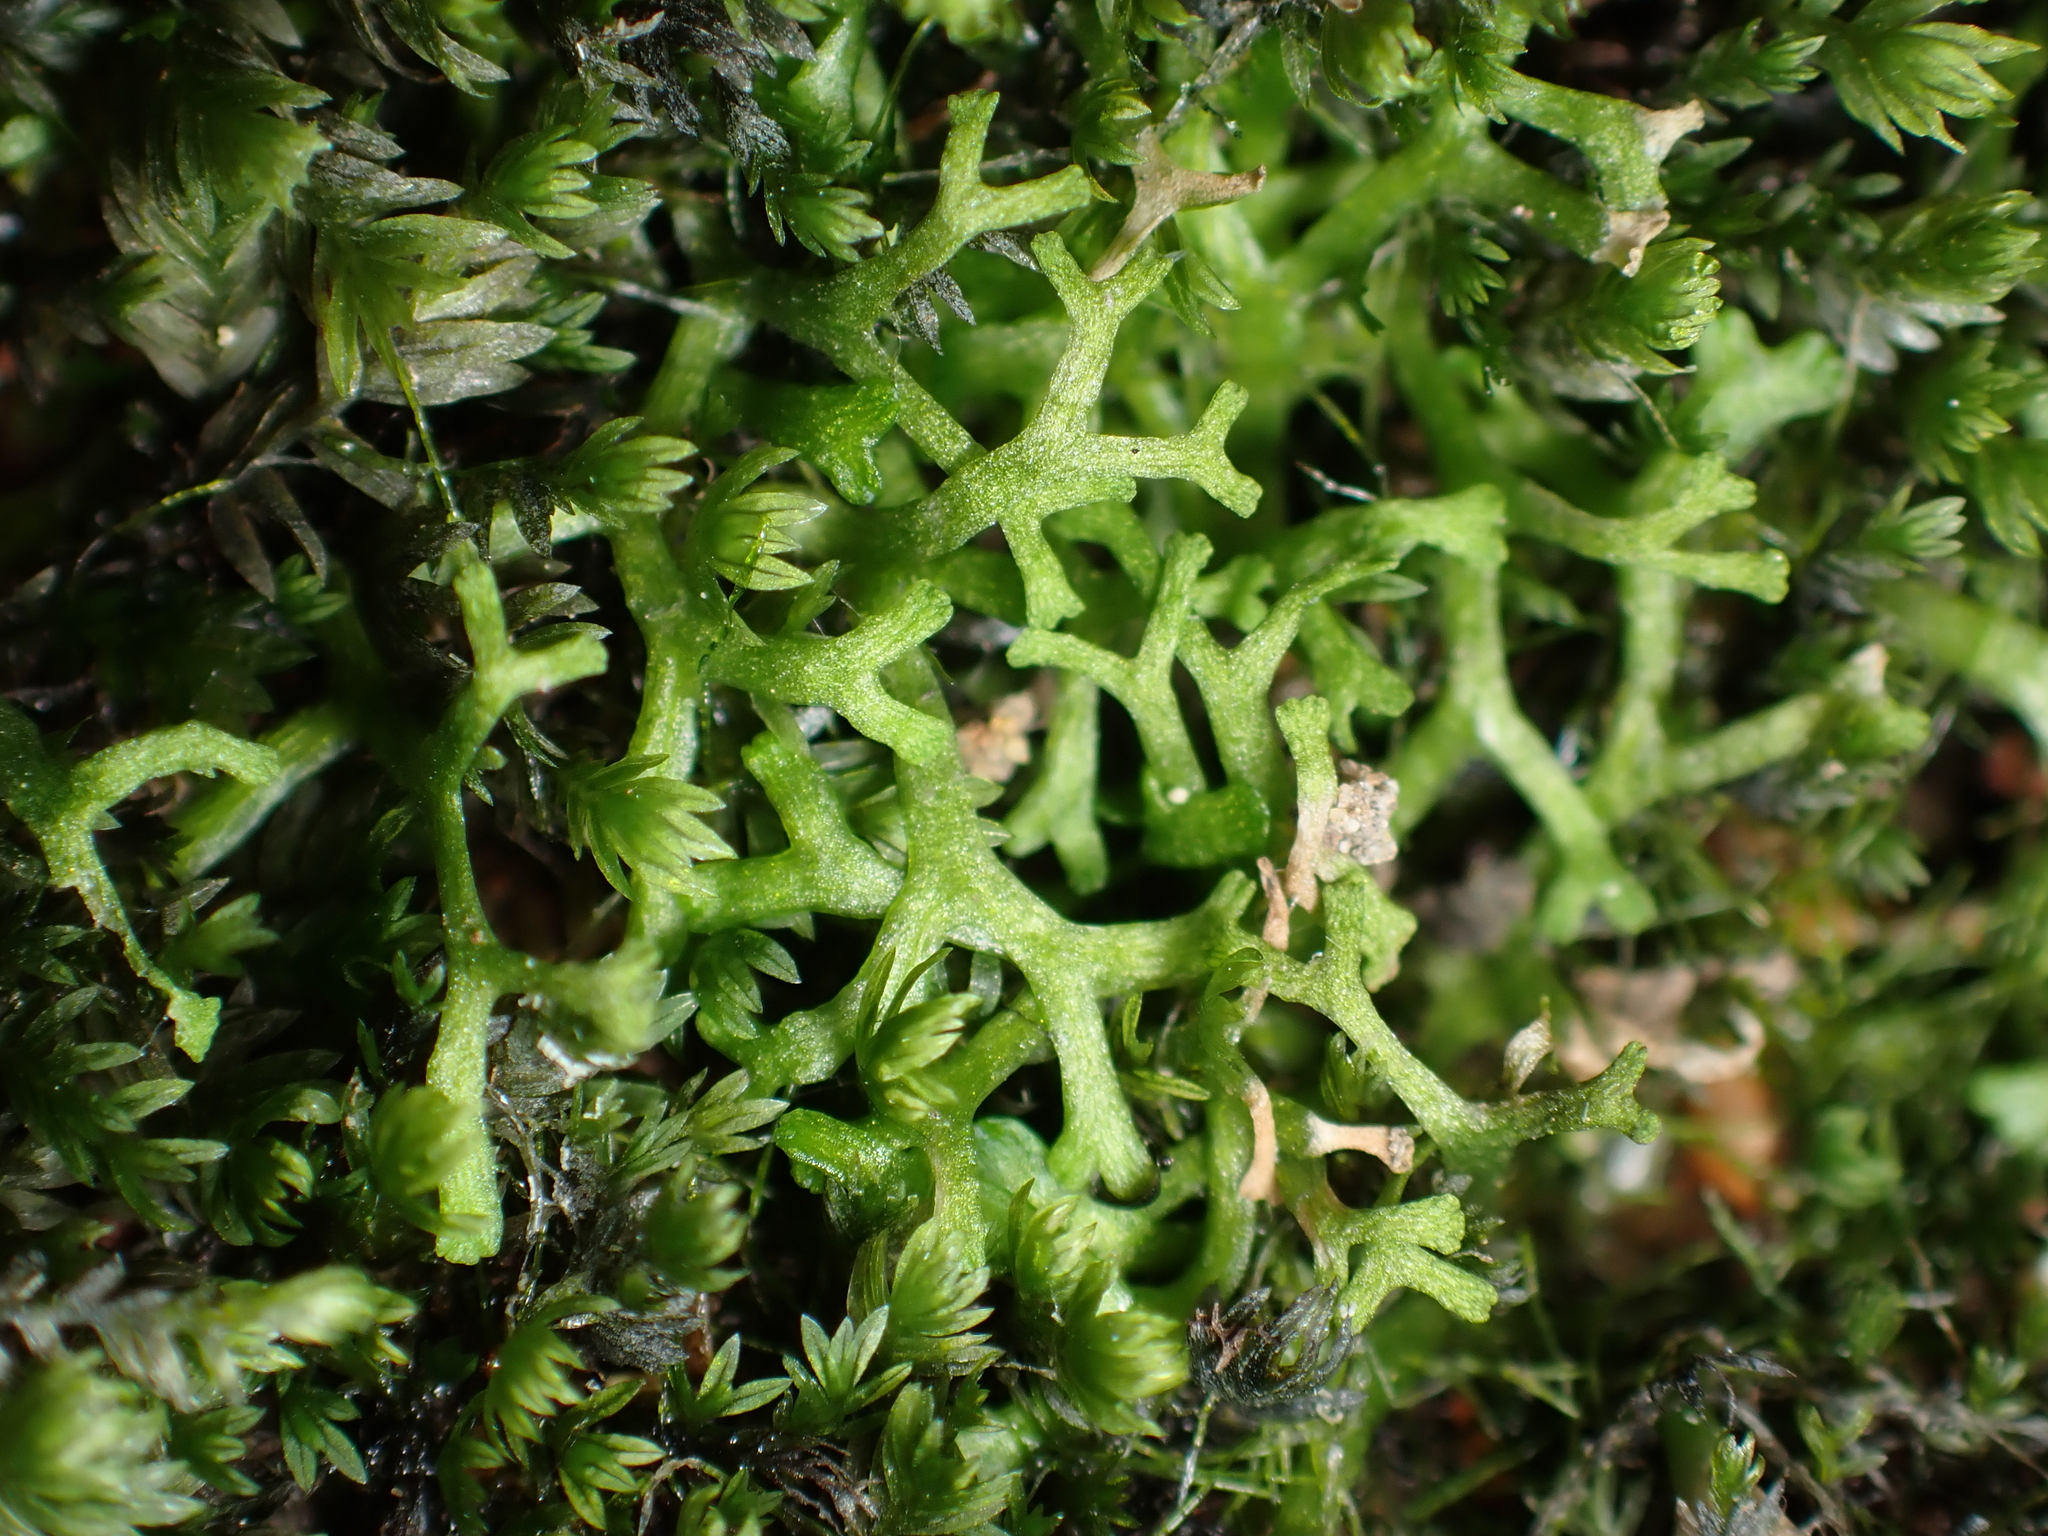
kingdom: Plantae
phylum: Marchantiophyta
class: Marchantiopsida
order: Marchantiales
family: Ricciaceae
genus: Riccia
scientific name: Riccia fluitans
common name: Floating crystalwort
